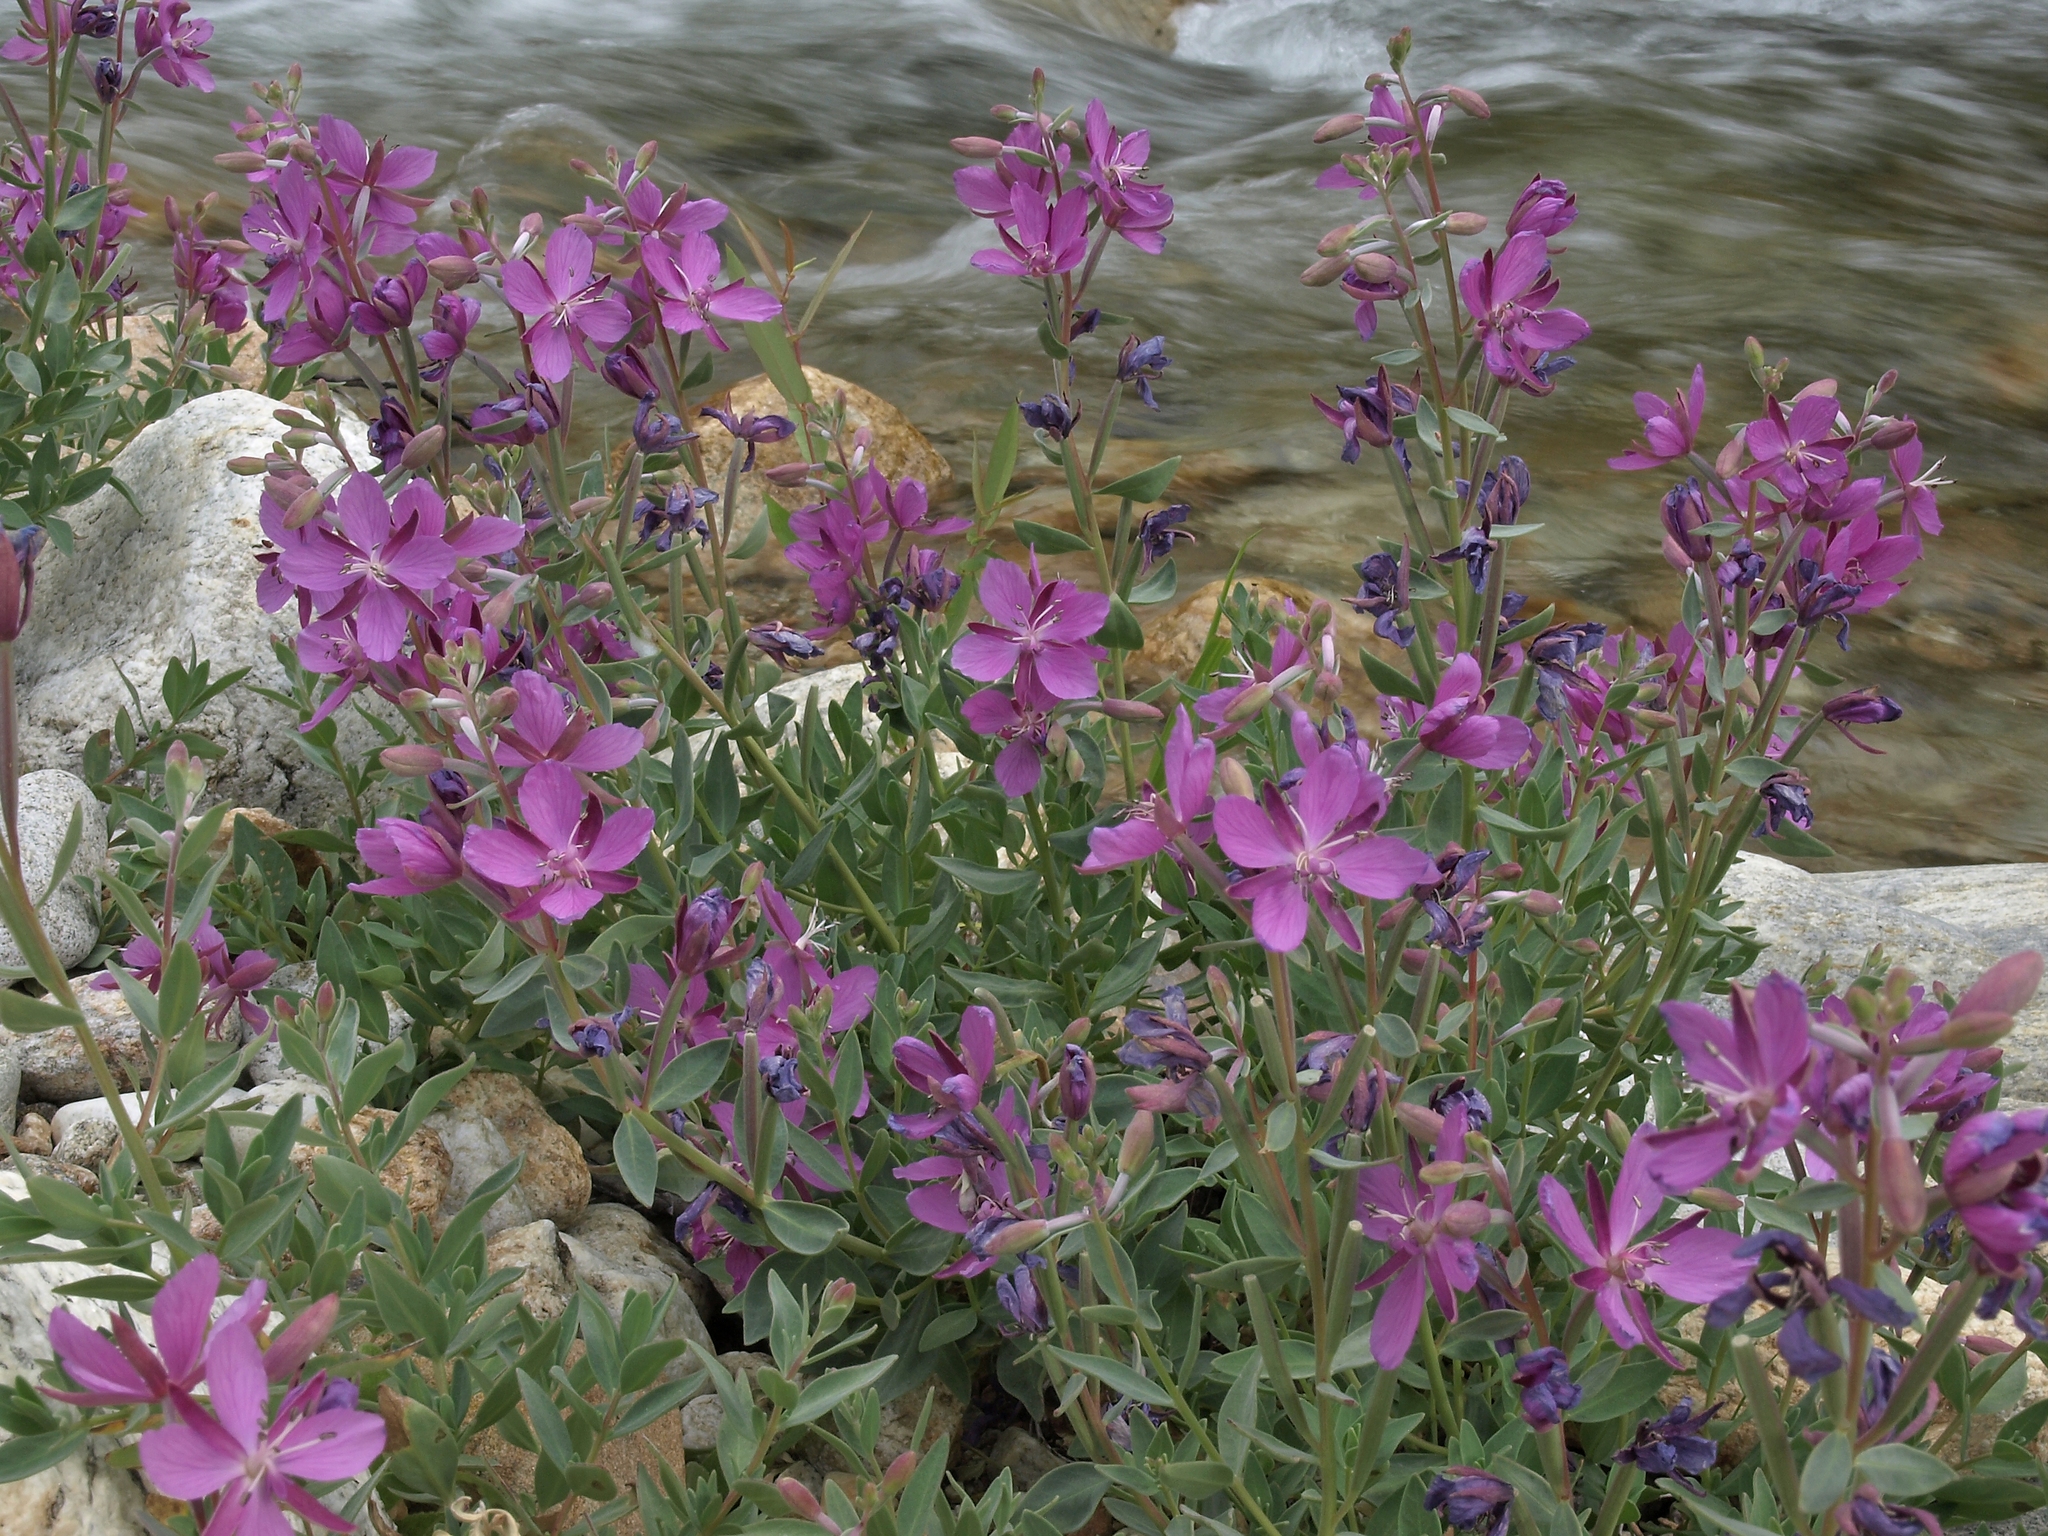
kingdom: Plantae
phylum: Tracheophyta
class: Magnoliopsida
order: Myrtales
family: Onagraceae
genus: Chamaenerion
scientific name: Chamaenerion latifolium
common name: Dwarf fireweed
